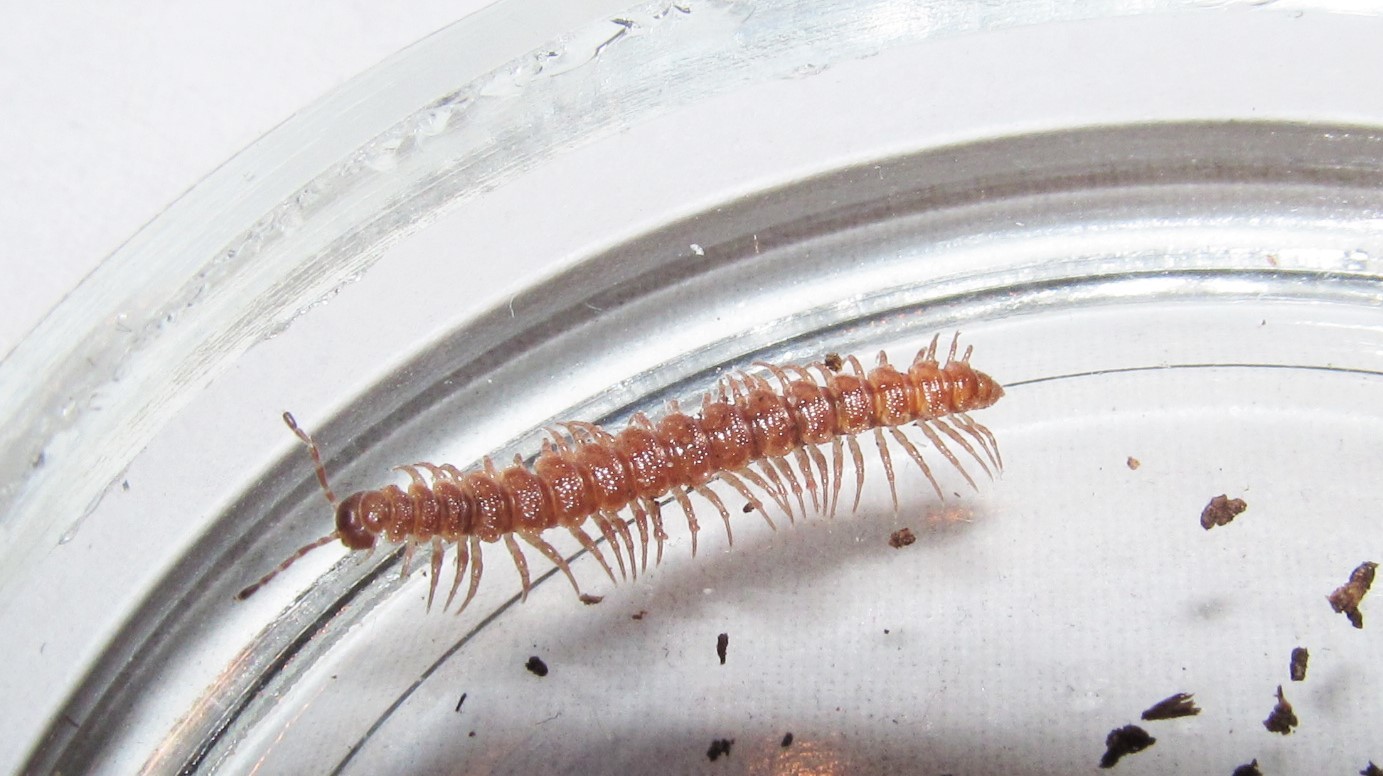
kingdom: Animalia
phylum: Arthropoda
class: Diplopoda
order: Polydesmida
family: Polydesmidae
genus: Scytonotus
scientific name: Scytonotus granulatus
